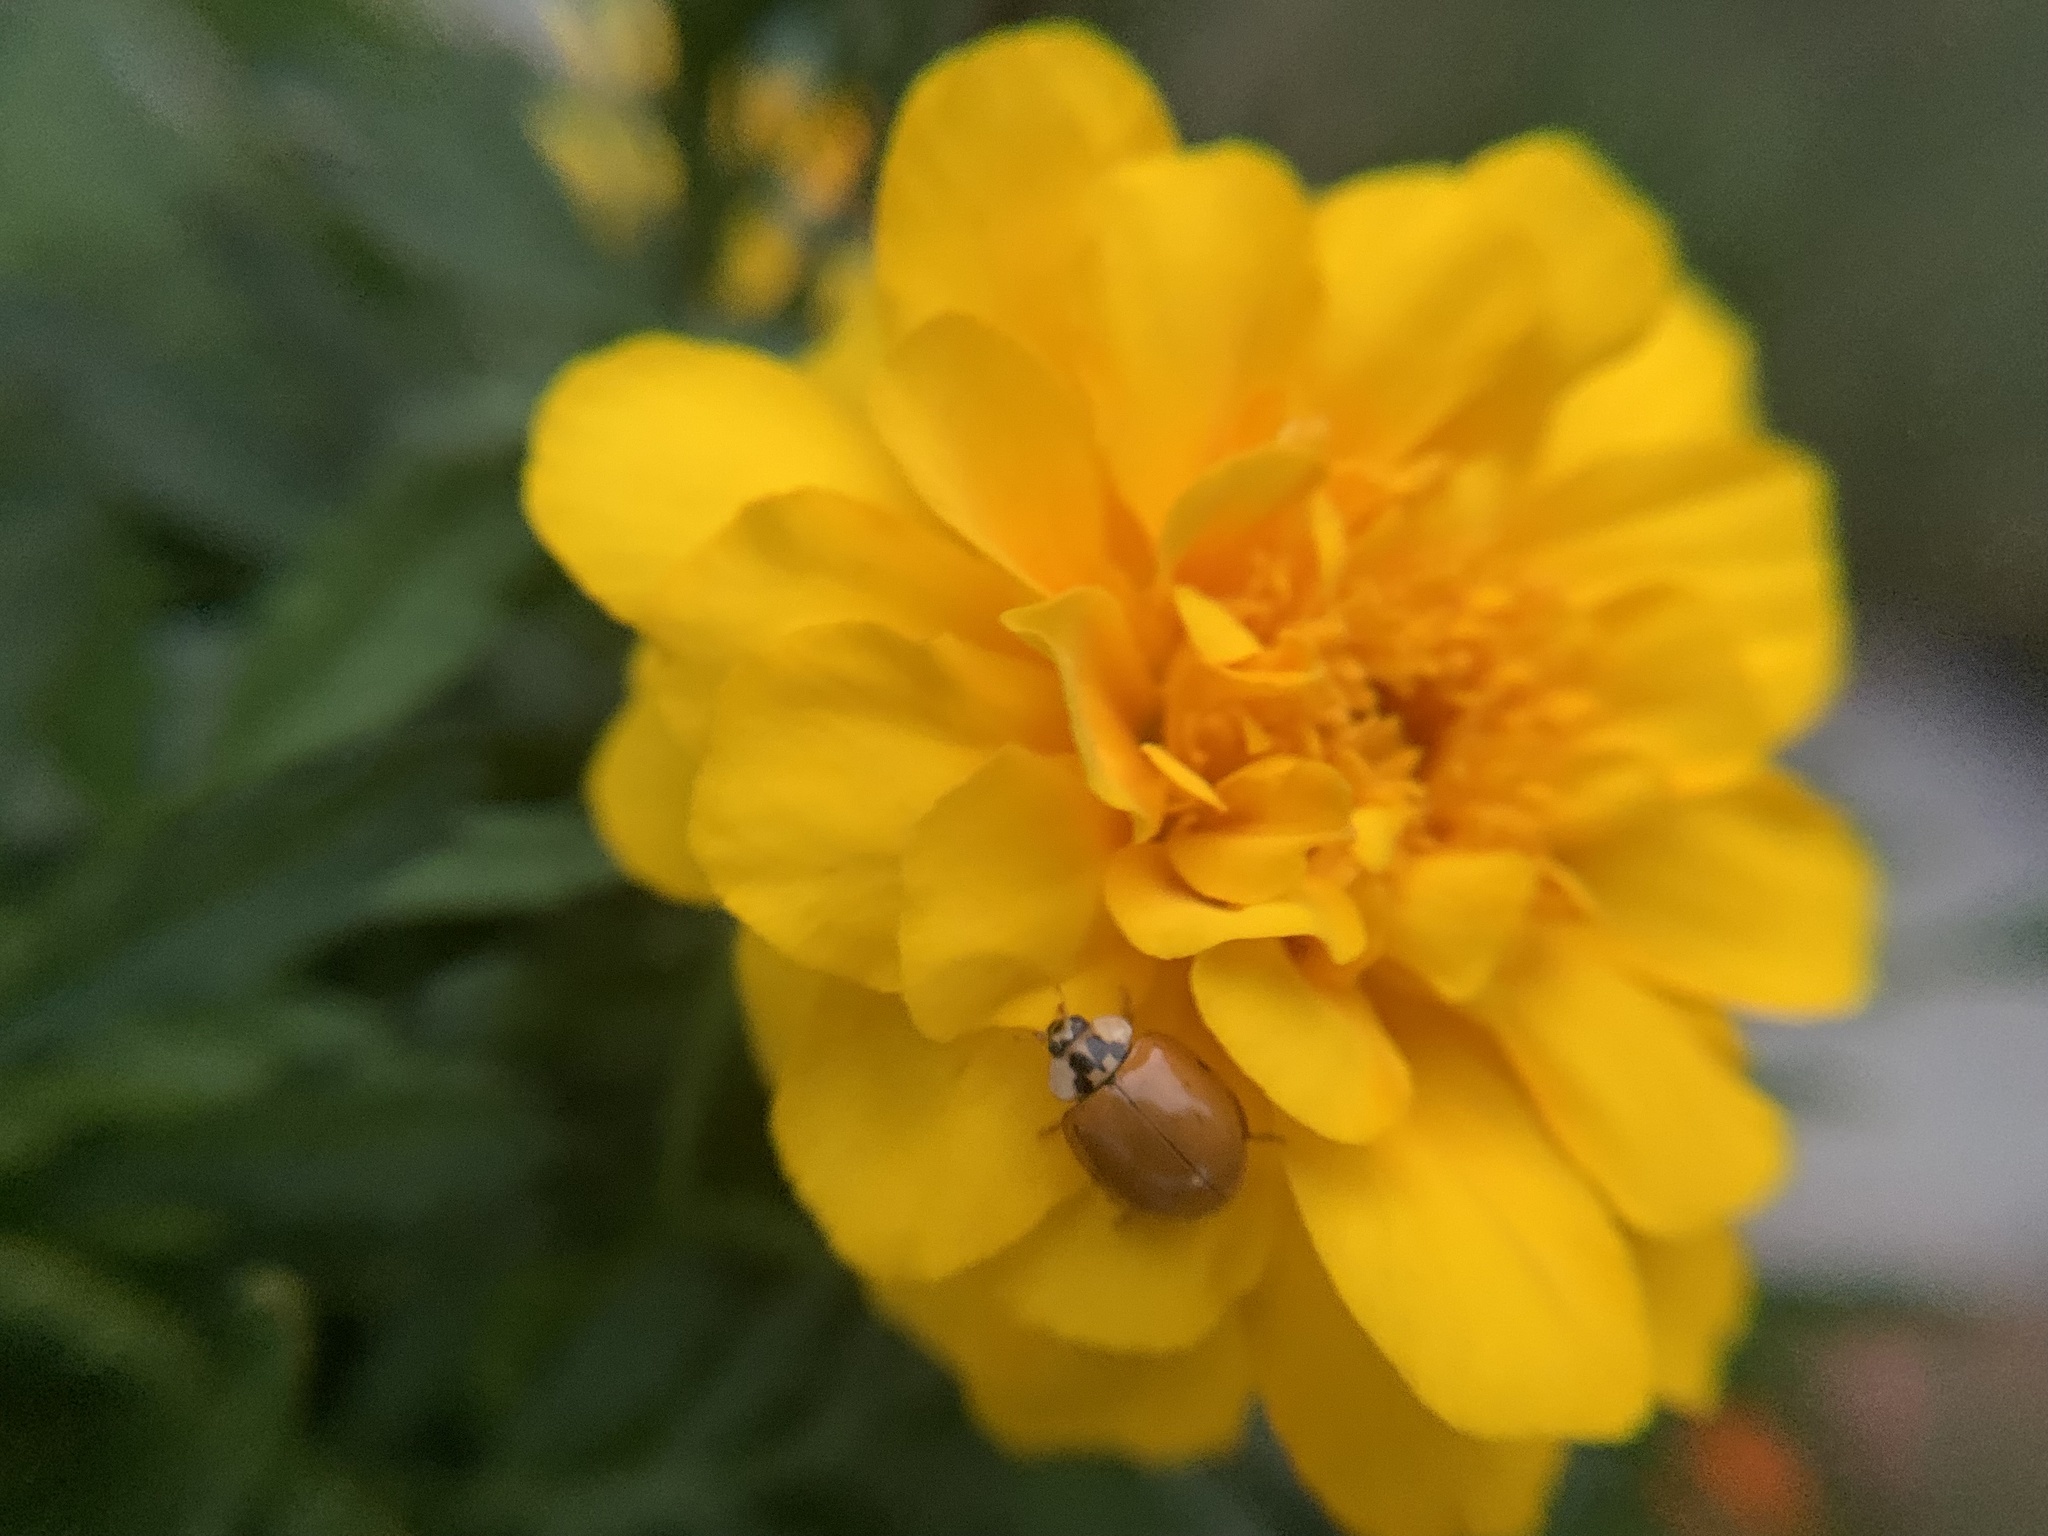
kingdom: Animalia
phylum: Arthropoda
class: Insecta
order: Coleoptera
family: Coccinellidae
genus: Harmonia
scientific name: Harmonia axyridis
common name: Harlequin ladybird
